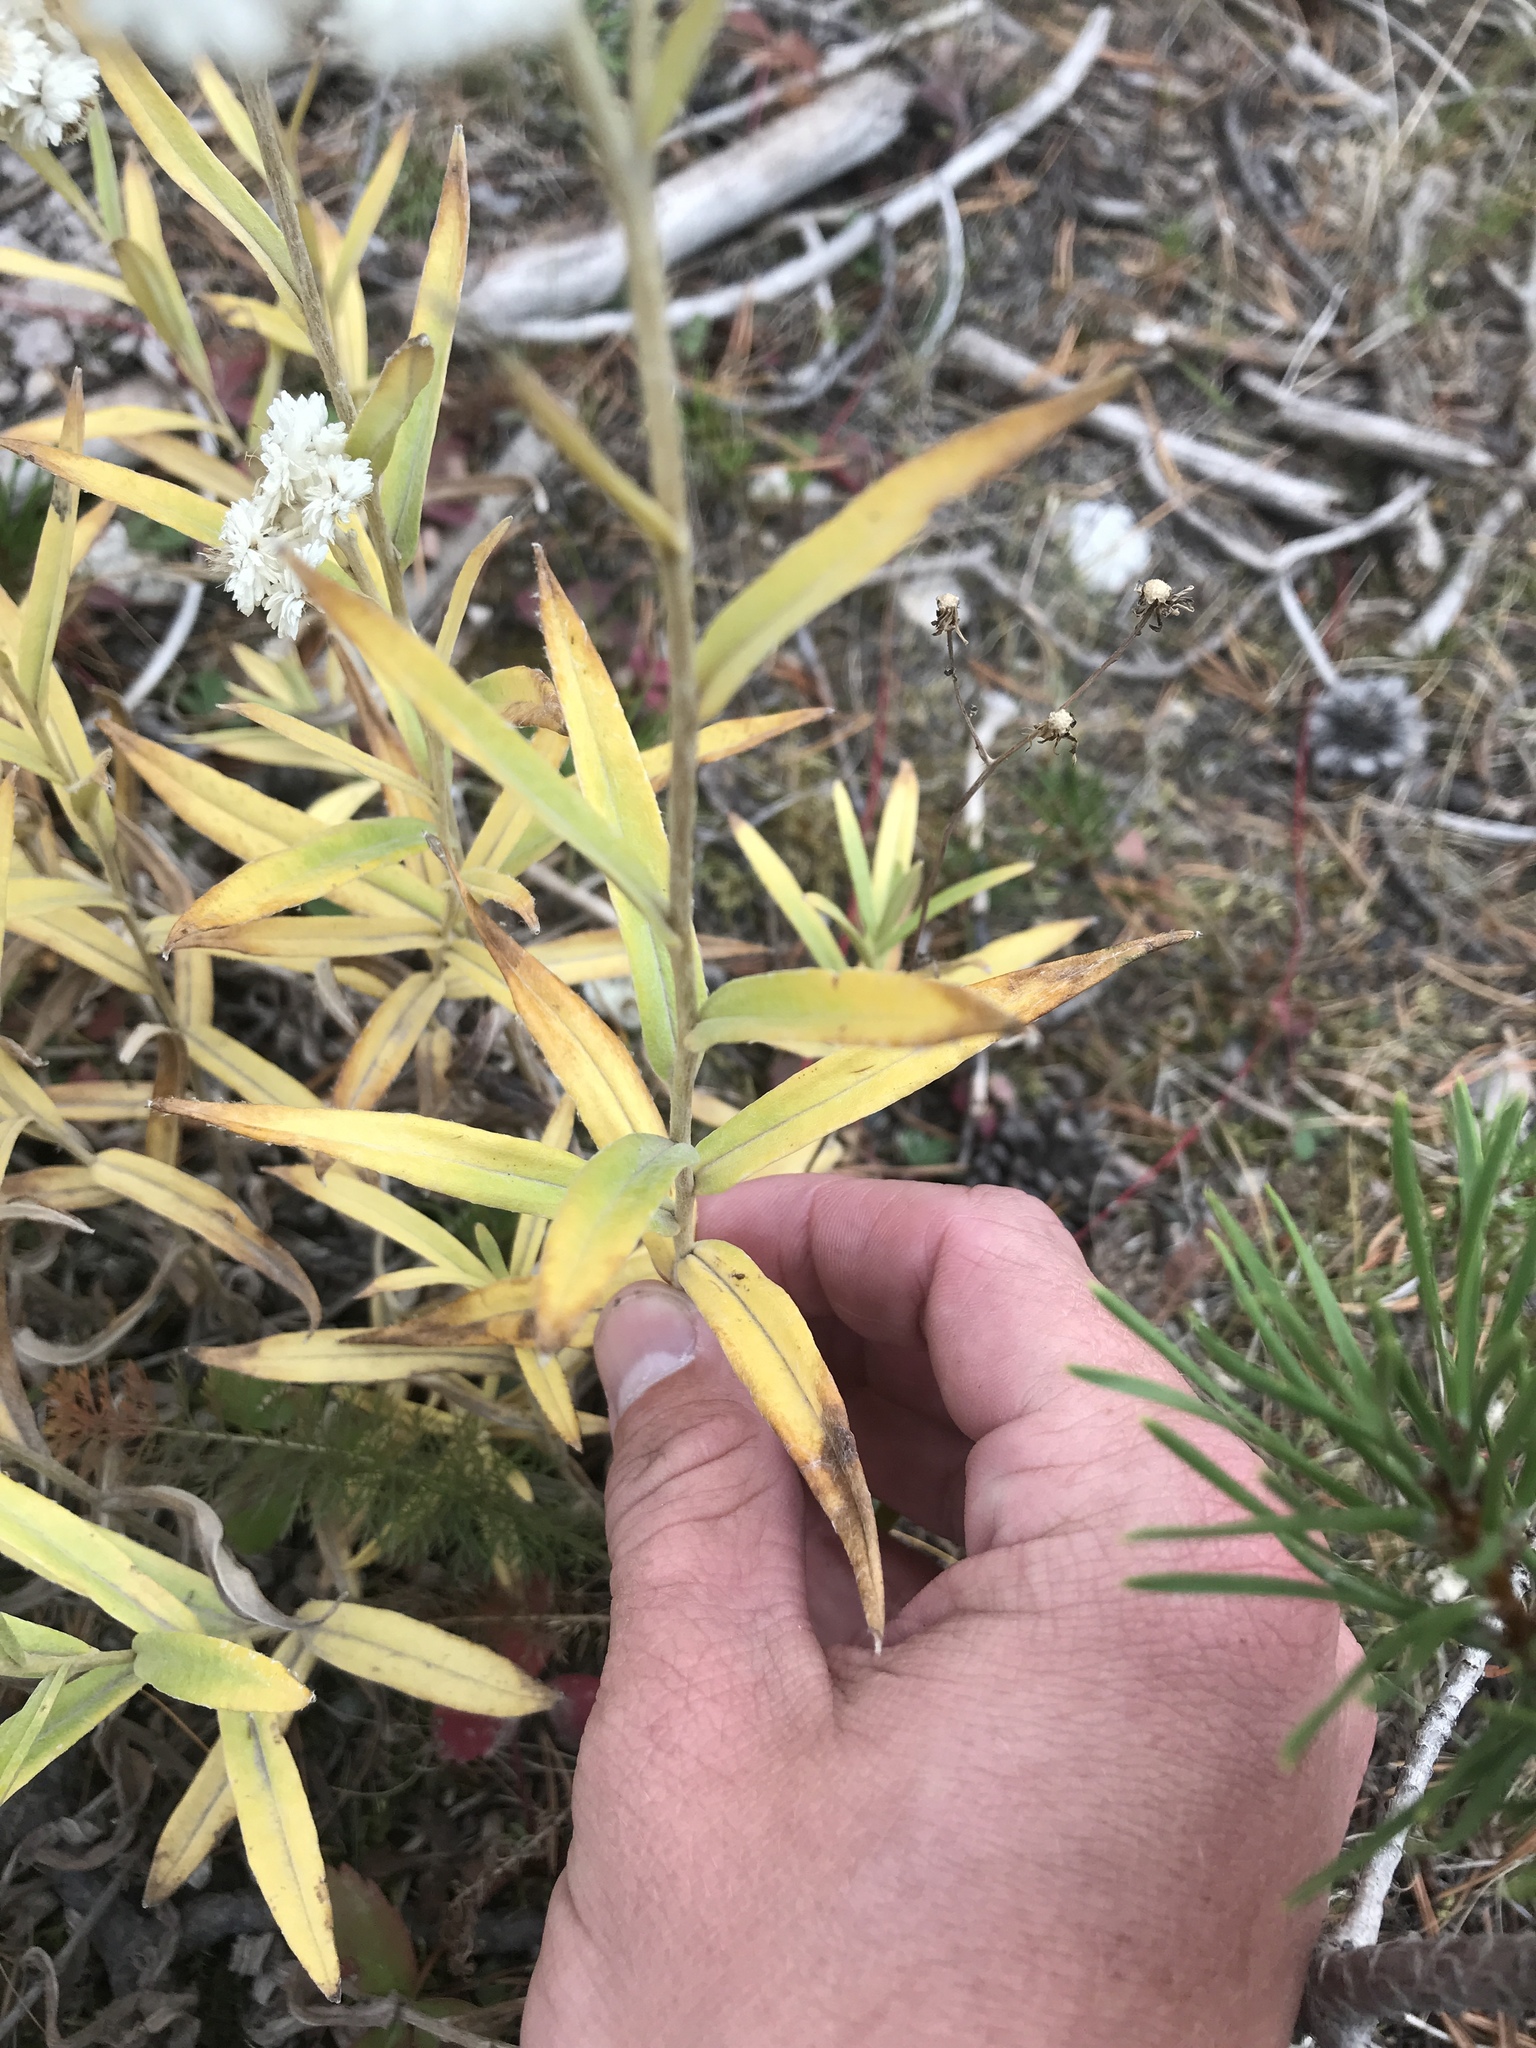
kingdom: Plantae
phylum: Tracheophyta
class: Magnoliopsida
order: Asterales
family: Asteraceae
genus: Anaphalis
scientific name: Anaphalis margaritacea
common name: Pearly everlasting
